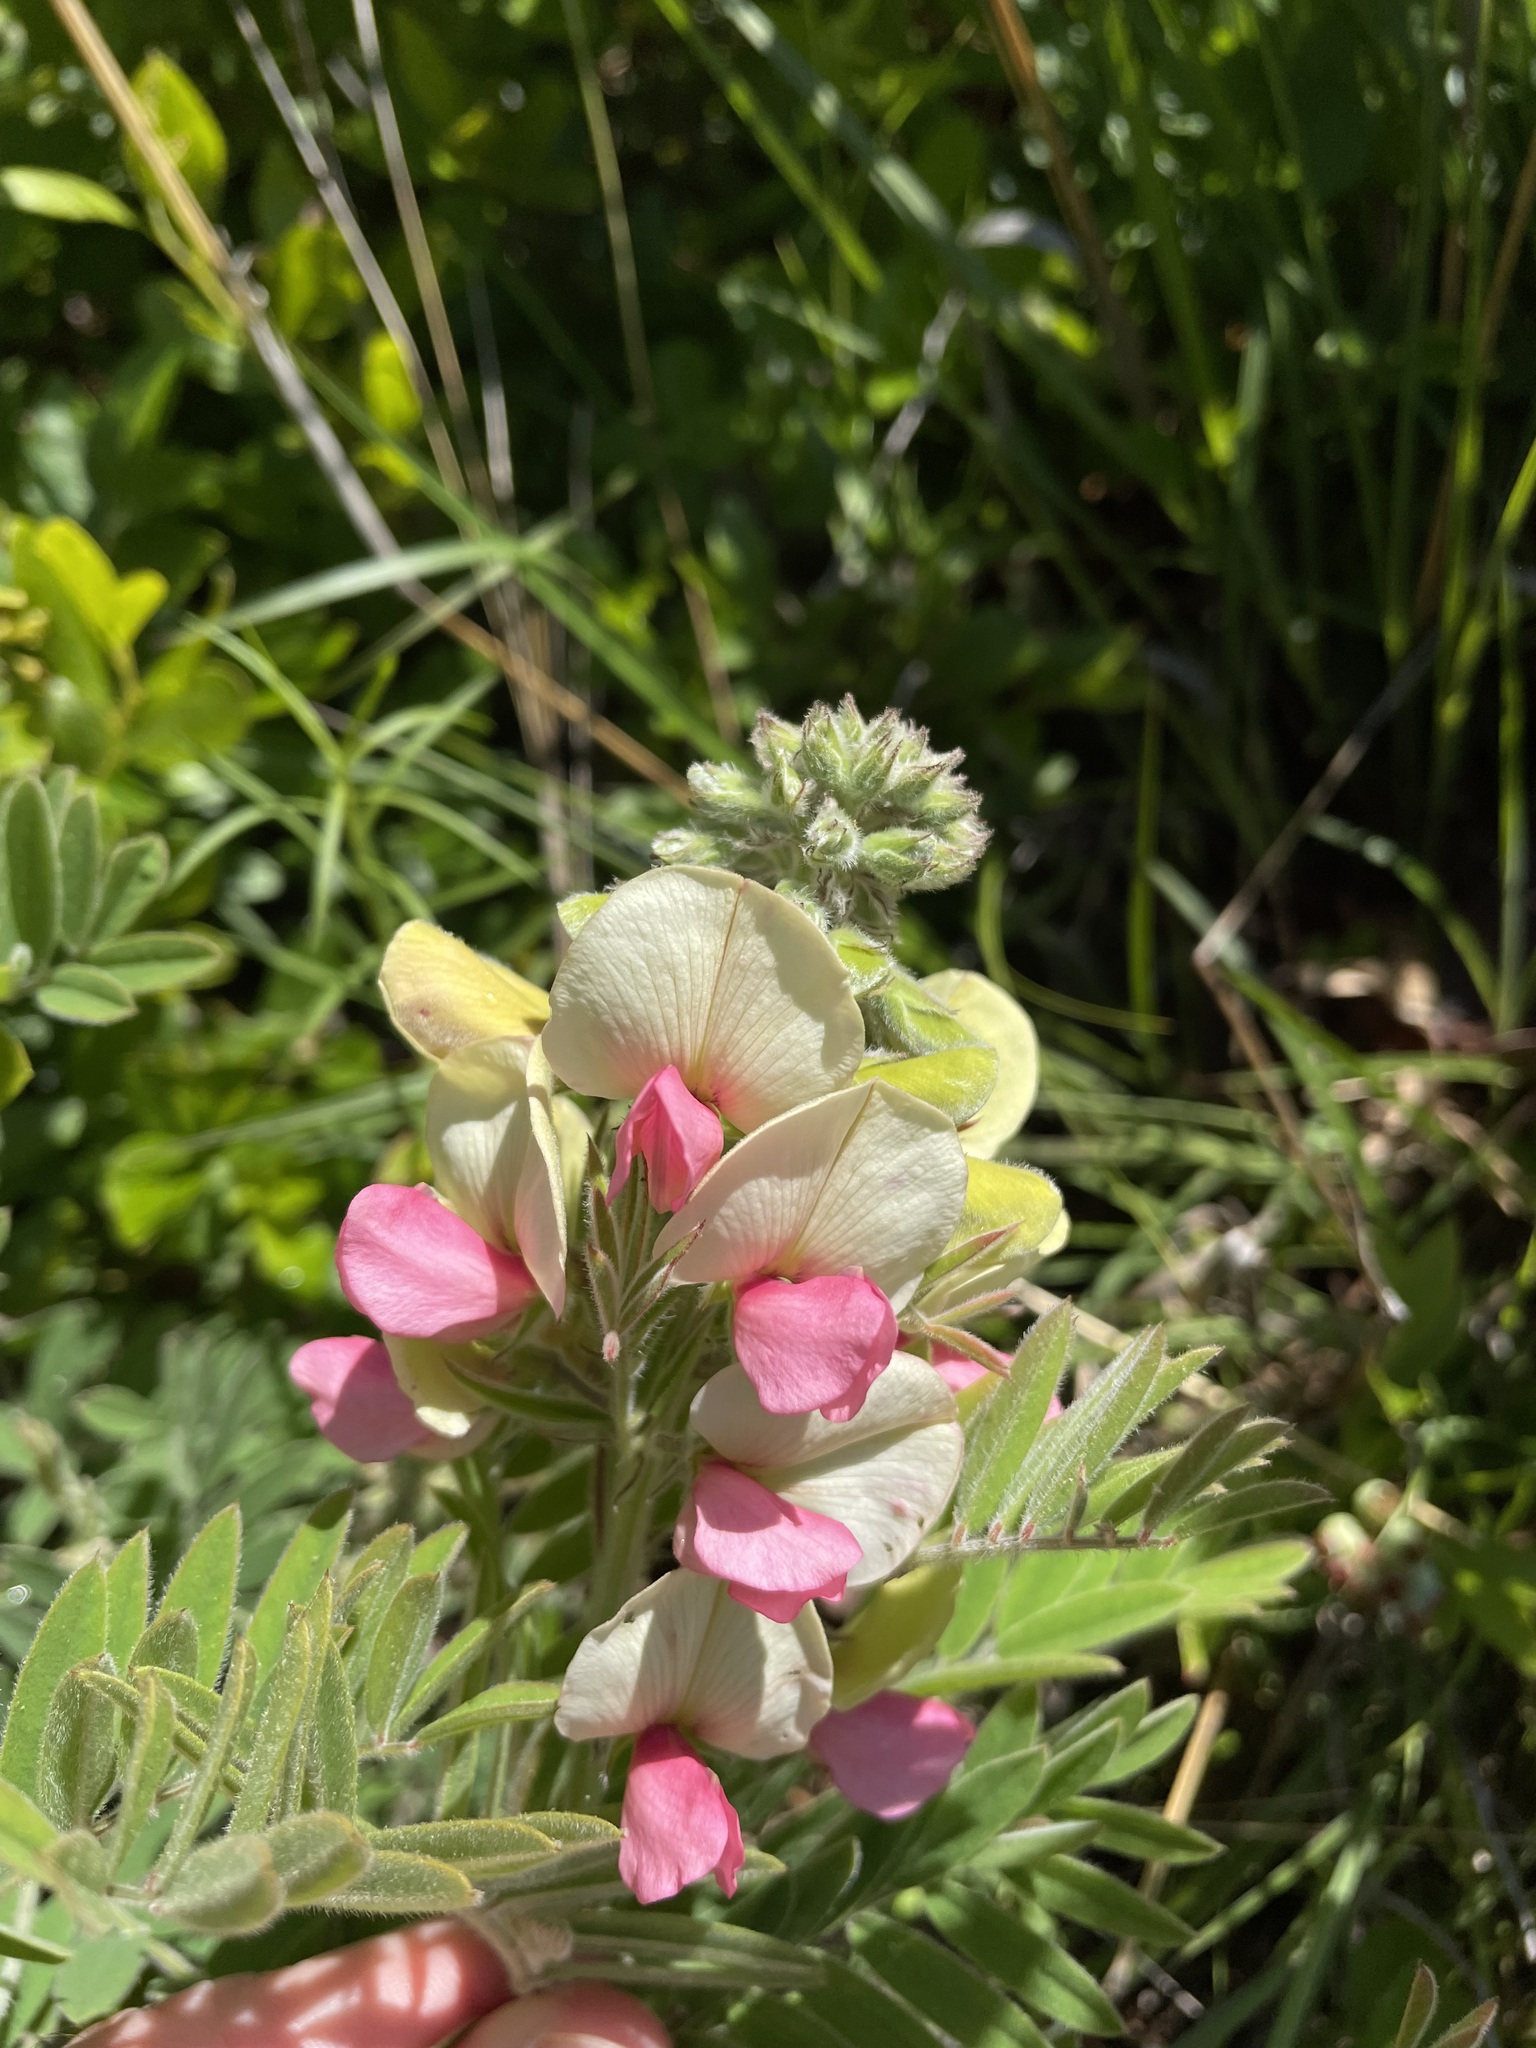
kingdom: Plantae
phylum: Tracheophyta
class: Magnoliopsida
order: Fabales
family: Fabaceae
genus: Tephrosia
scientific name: Tephrosia virginiana
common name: Rabbit-pea
